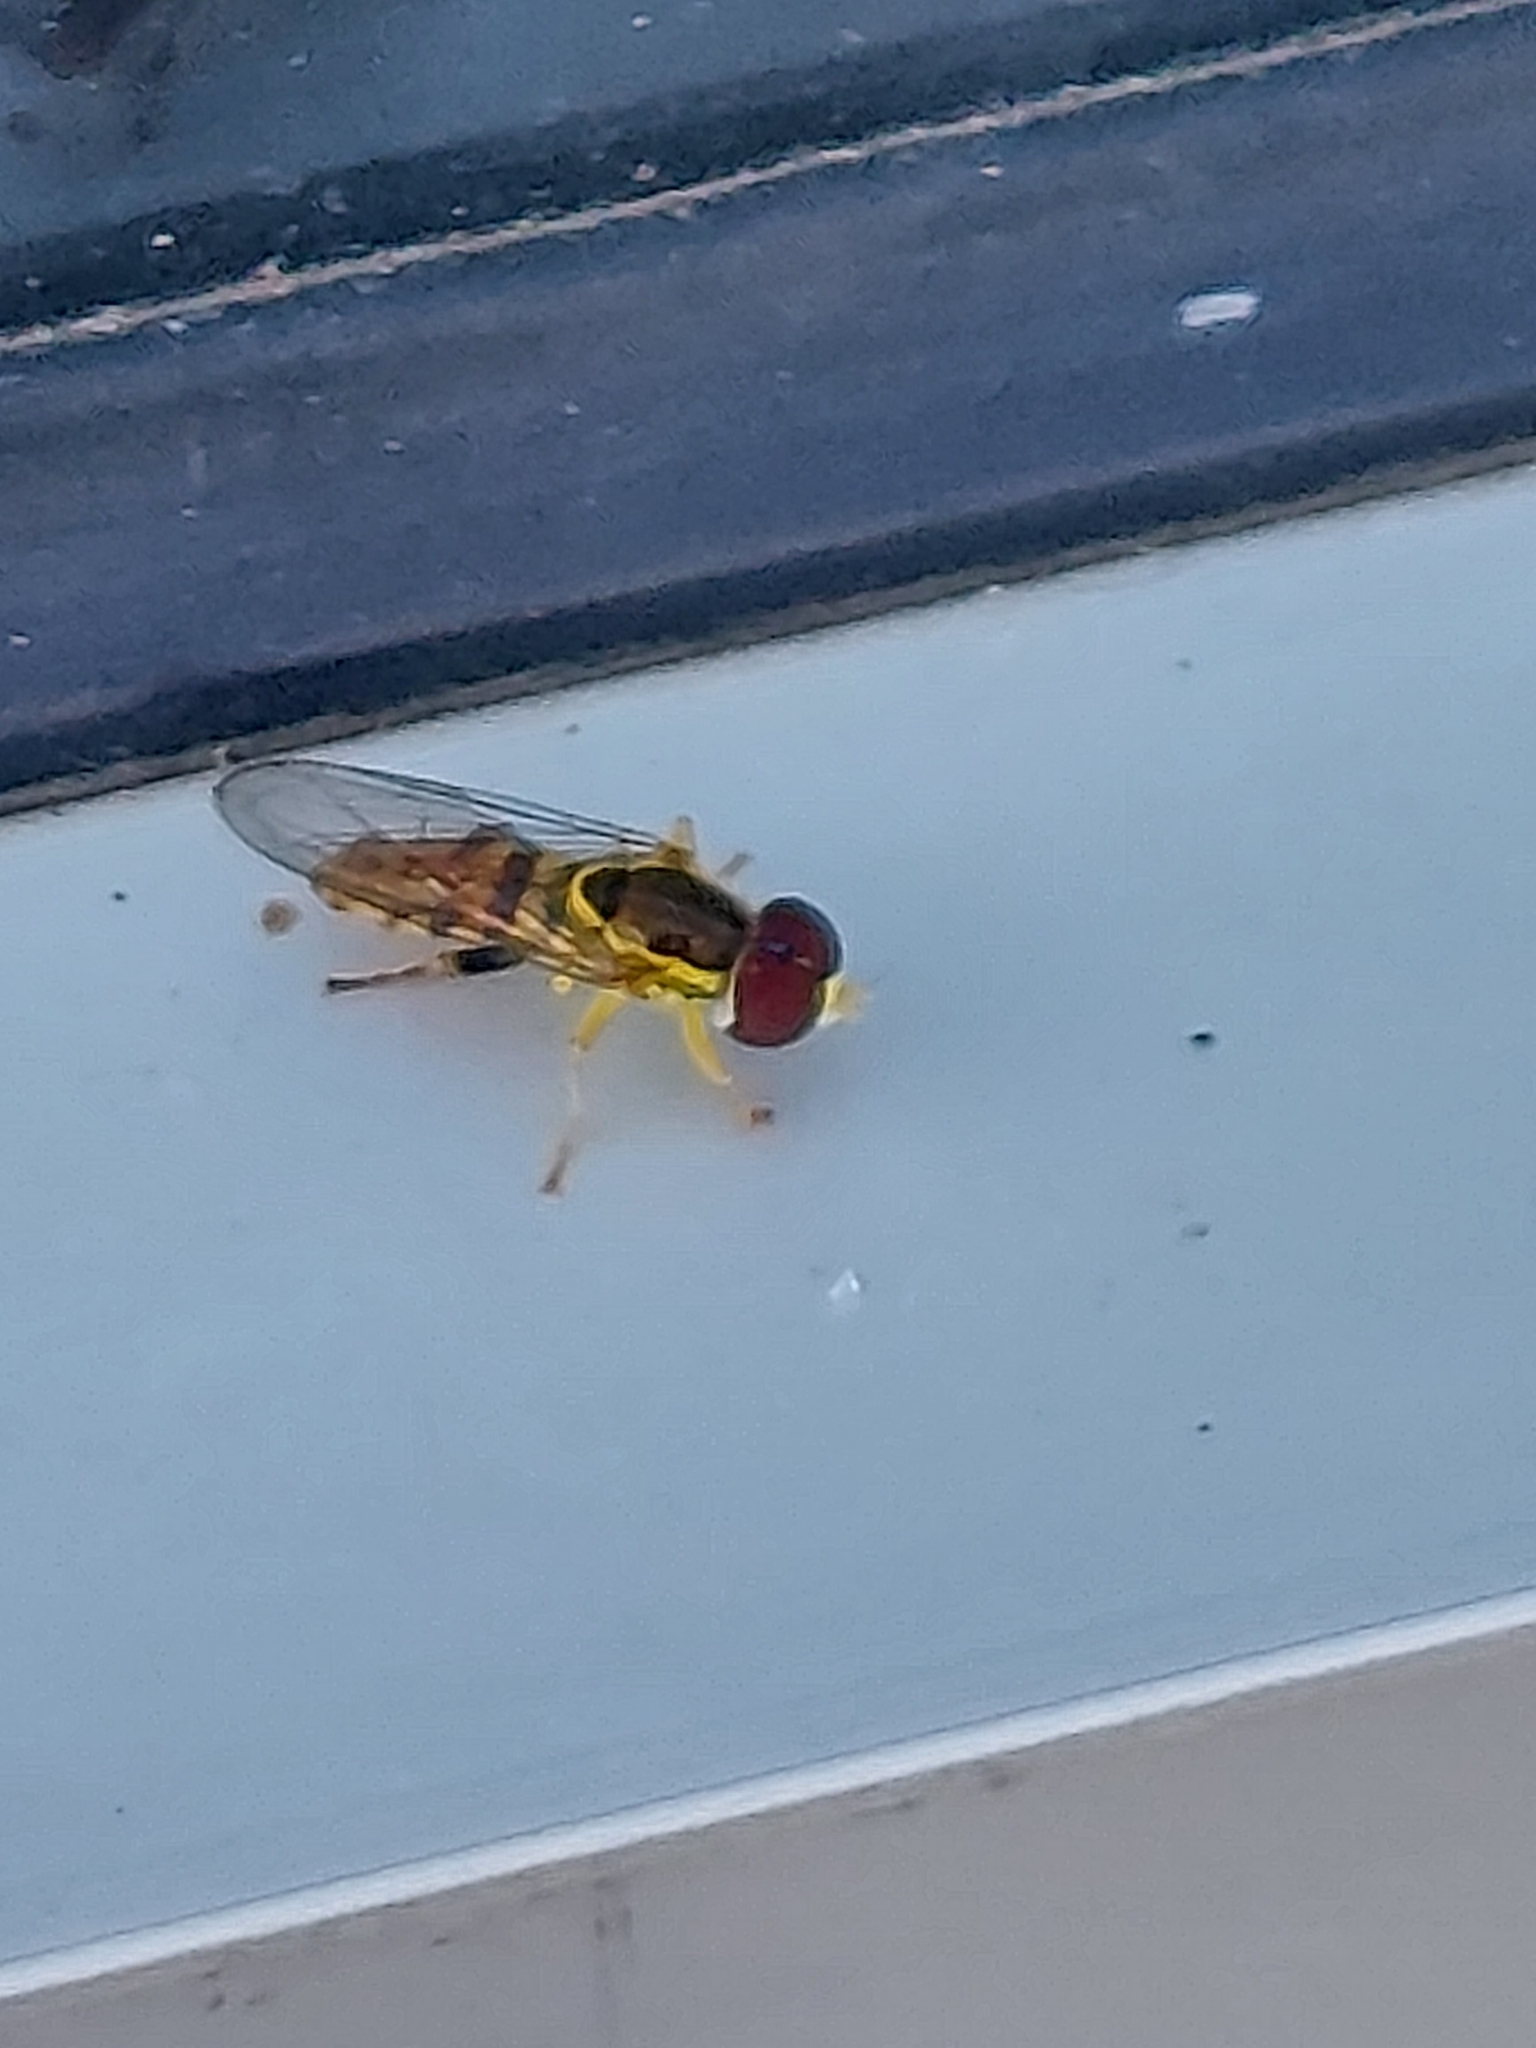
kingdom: Animalia
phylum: Arthropoda
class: Insecta
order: Diptera
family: Syrphidae
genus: Toxomerus
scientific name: Toxomerus geminatus
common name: Eastern calligrapher
